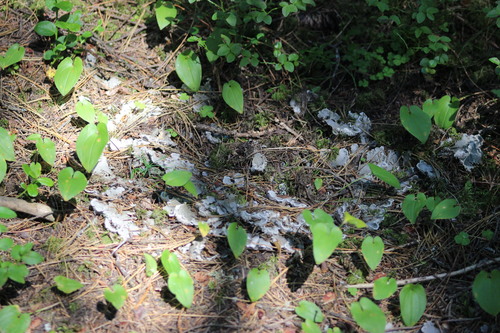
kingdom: Fungi
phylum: Ascomycota
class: Lecanoromycetes
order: Peltigerales
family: Peltigeraceae
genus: Peltigera
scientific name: Peltigera
